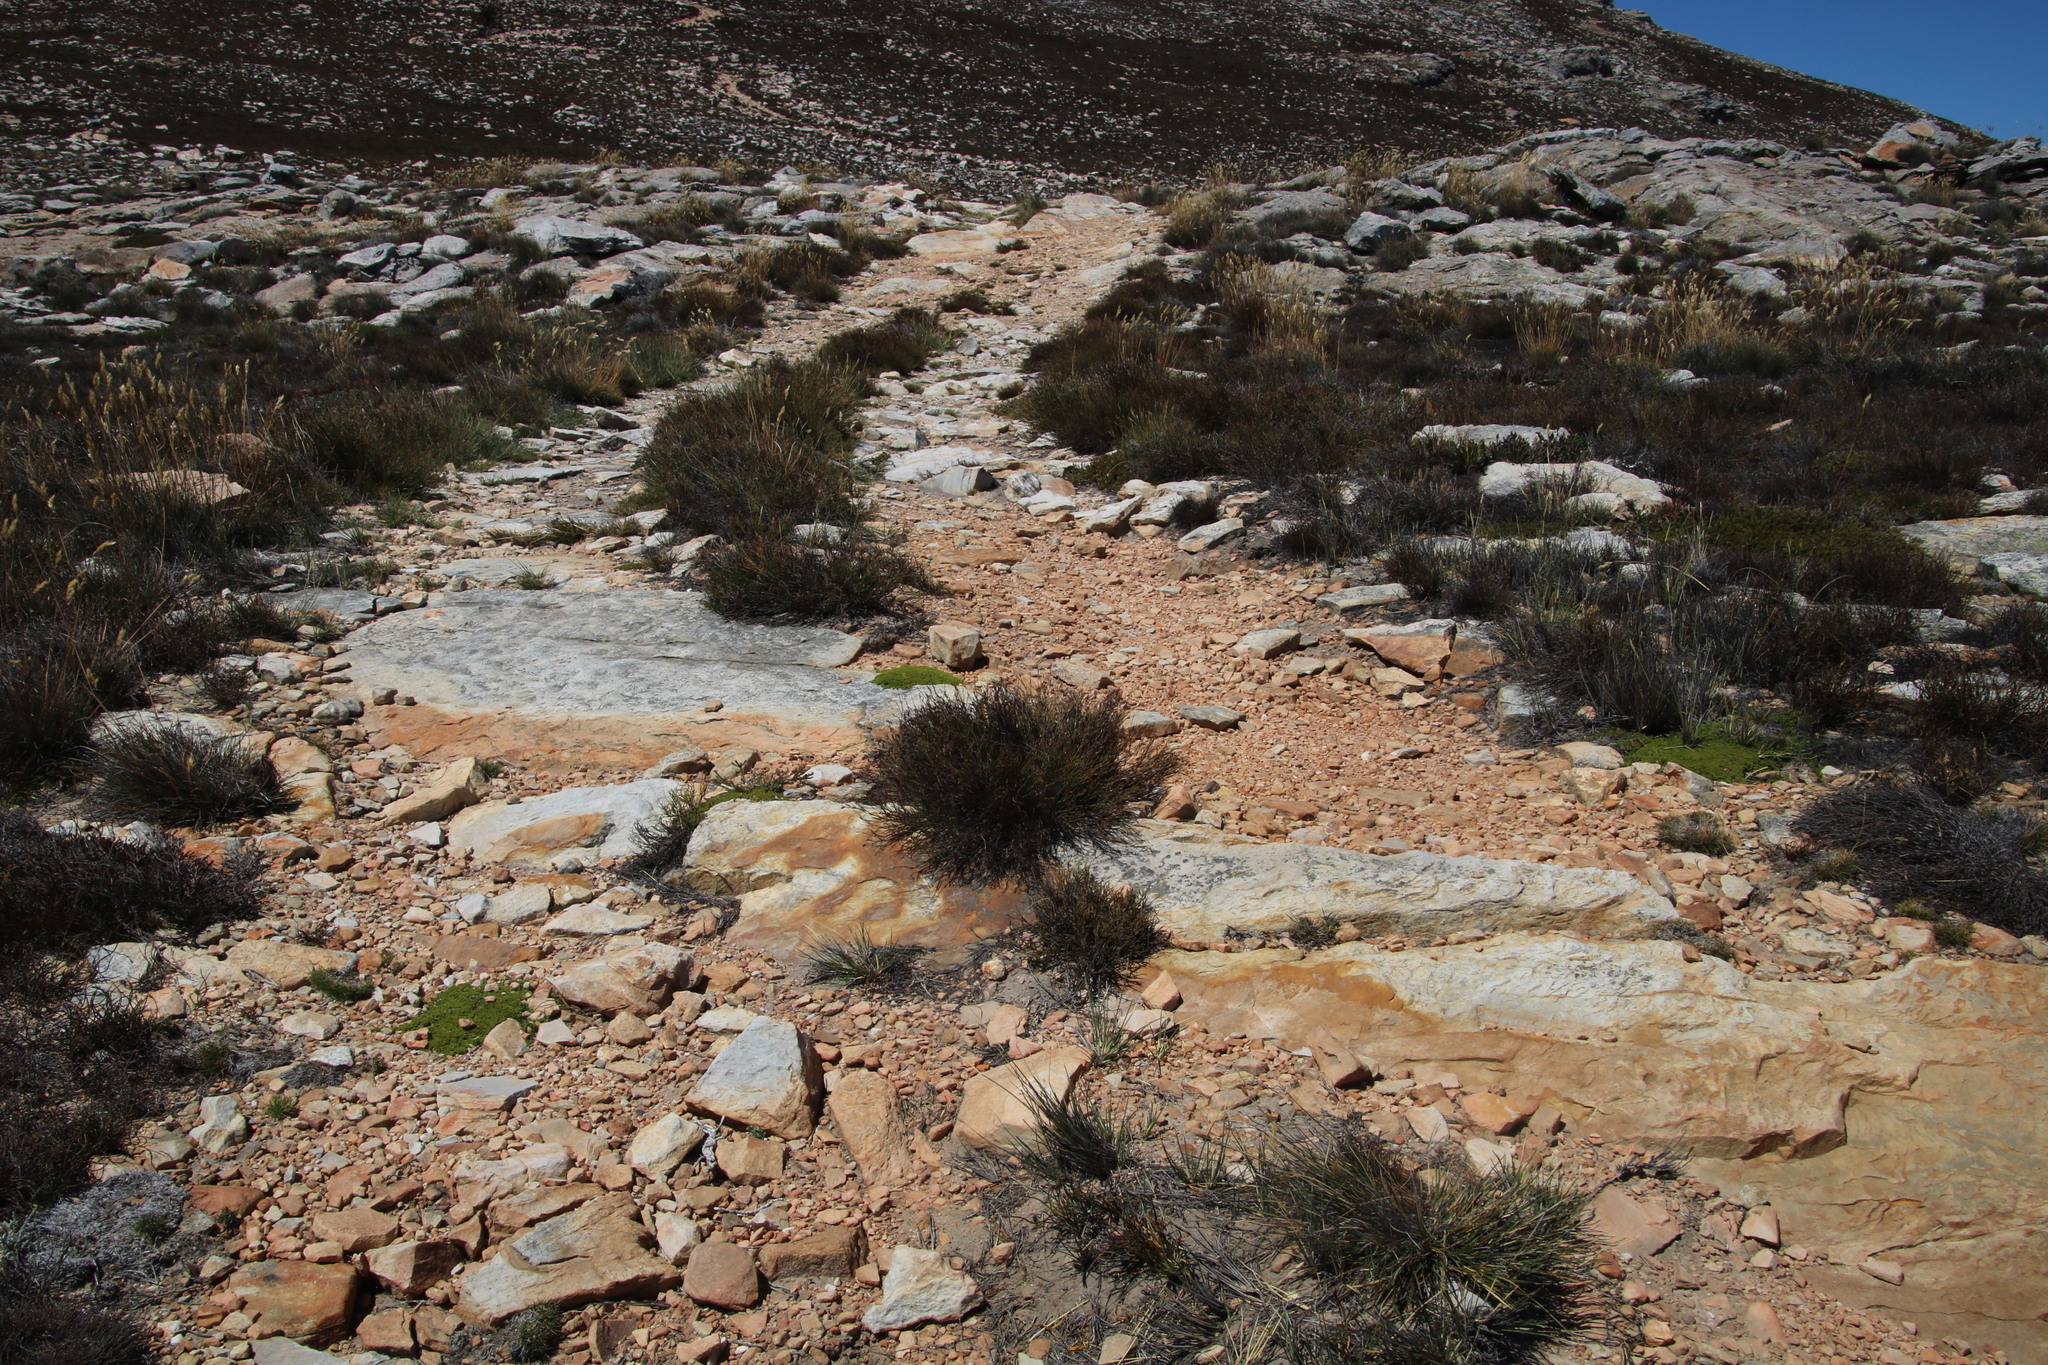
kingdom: Plantae
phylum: Tracheophyta
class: Magnoliopsida
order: Fabales
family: Fabaceae
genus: Aspalathus
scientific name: Aspalathus pedicellata
